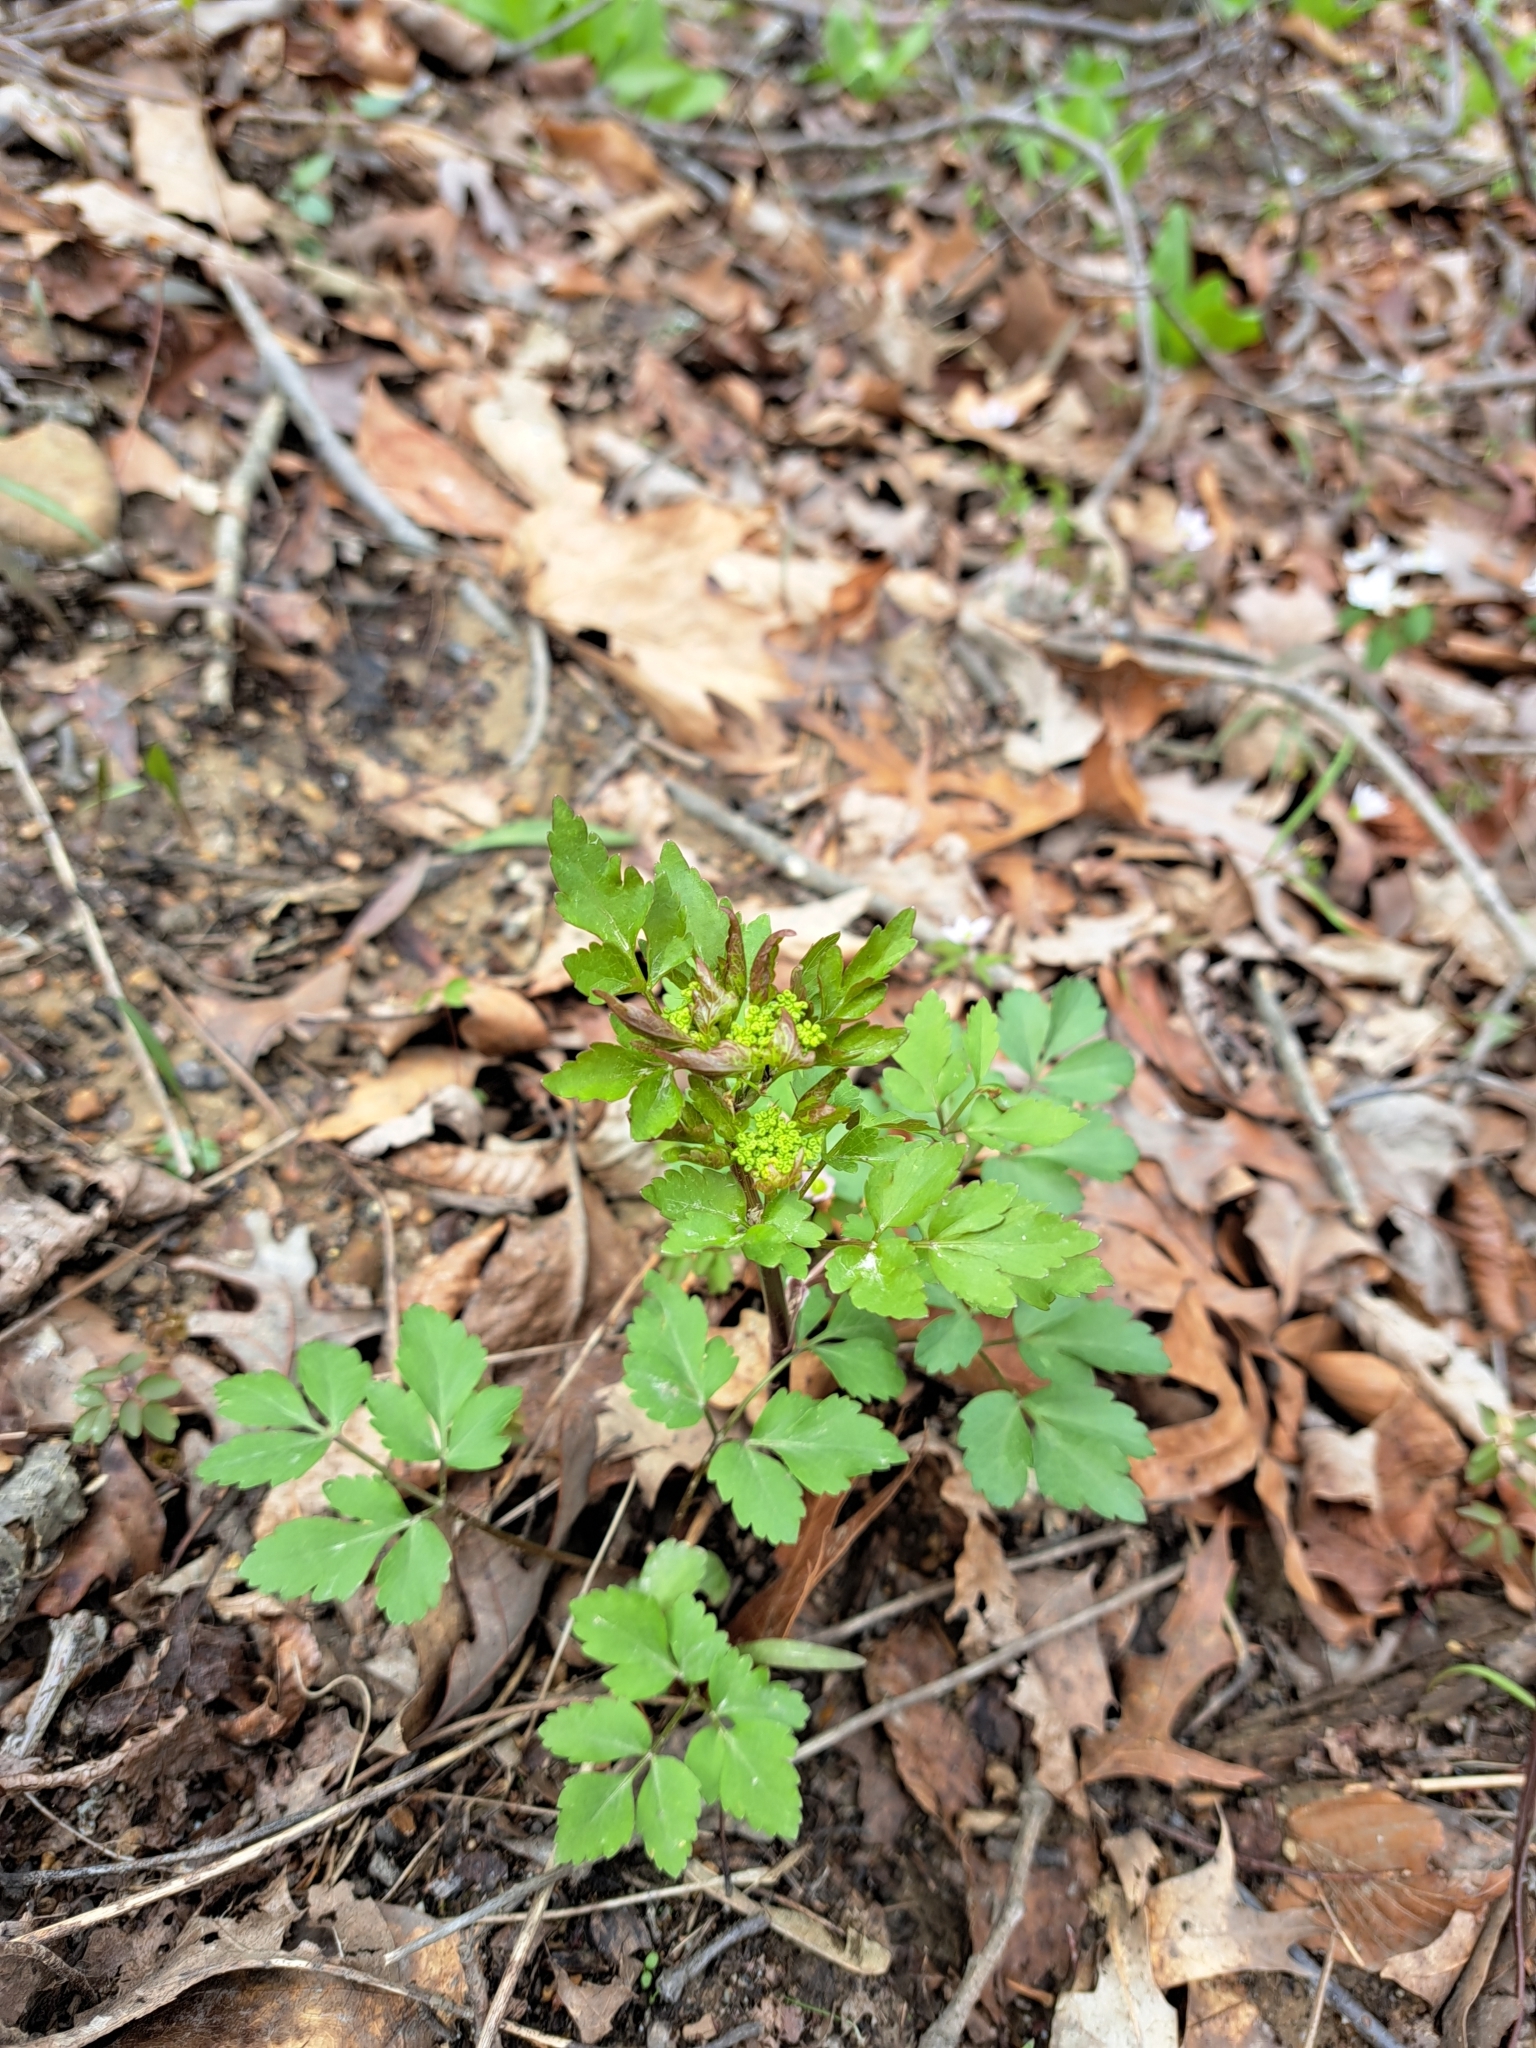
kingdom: Plantae
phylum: Tracheophyta
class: Magnoliopsida
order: Apiales
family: Apiaceae
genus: Zizia
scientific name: Zizia aurea
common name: Golden alexanders
